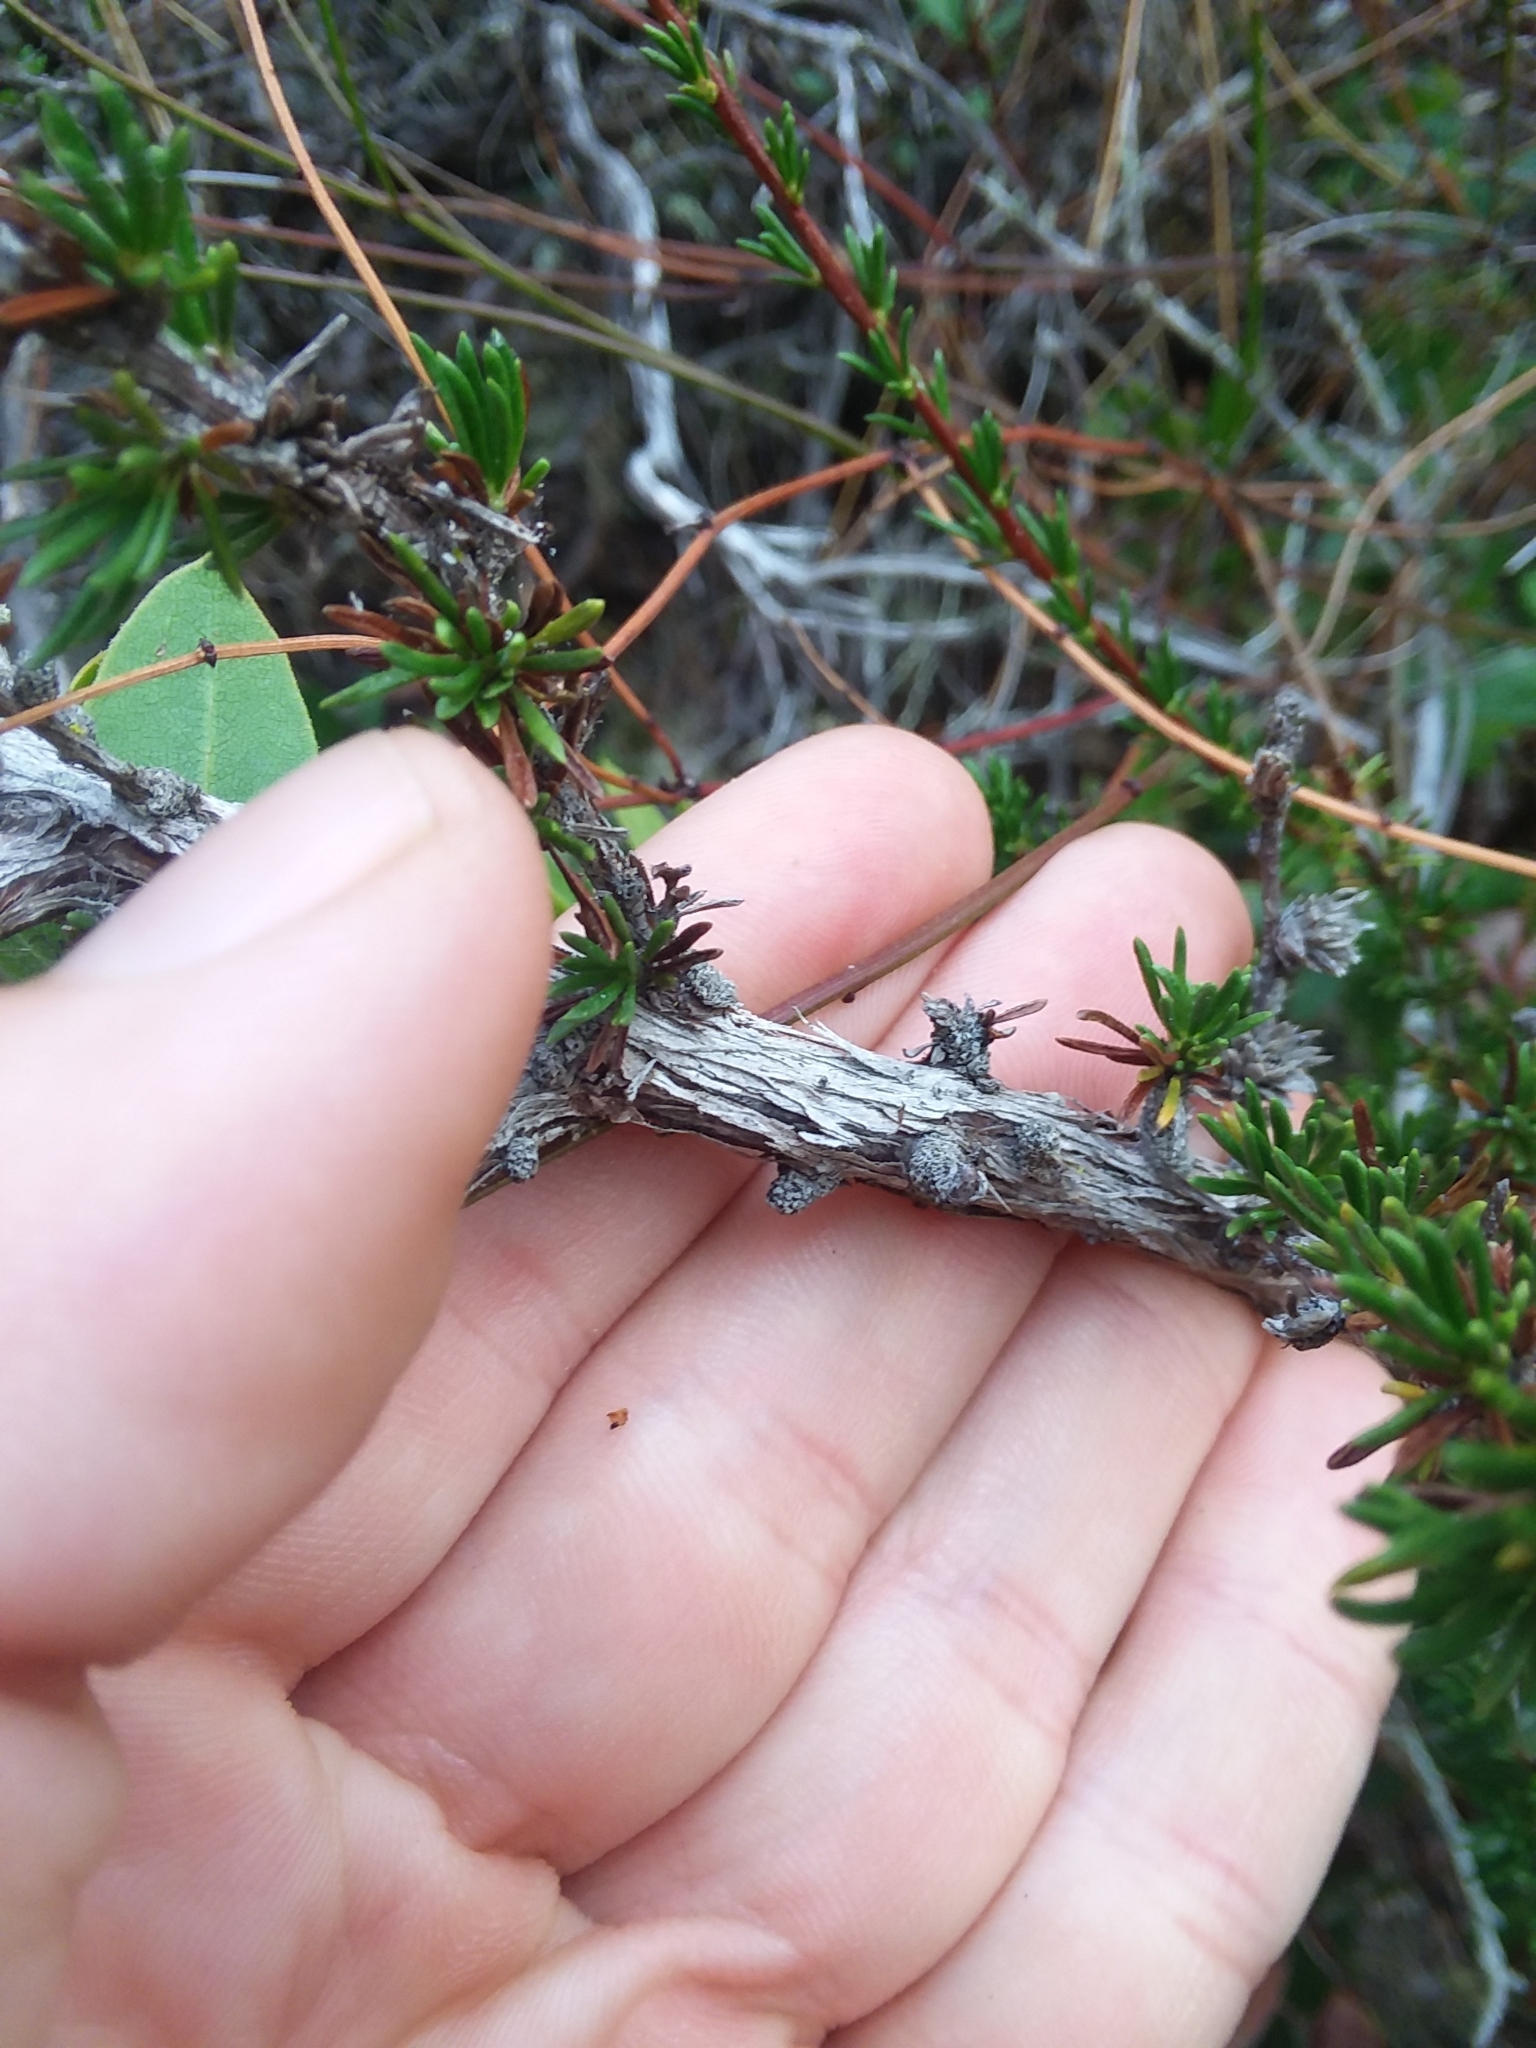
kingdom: Plantae
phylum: Tracheophyta
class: Magnoliopsida
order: Rosales
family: Rosaceae
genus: Adenostoma
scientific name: Adenostoma fasciculatum
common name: Chamise
